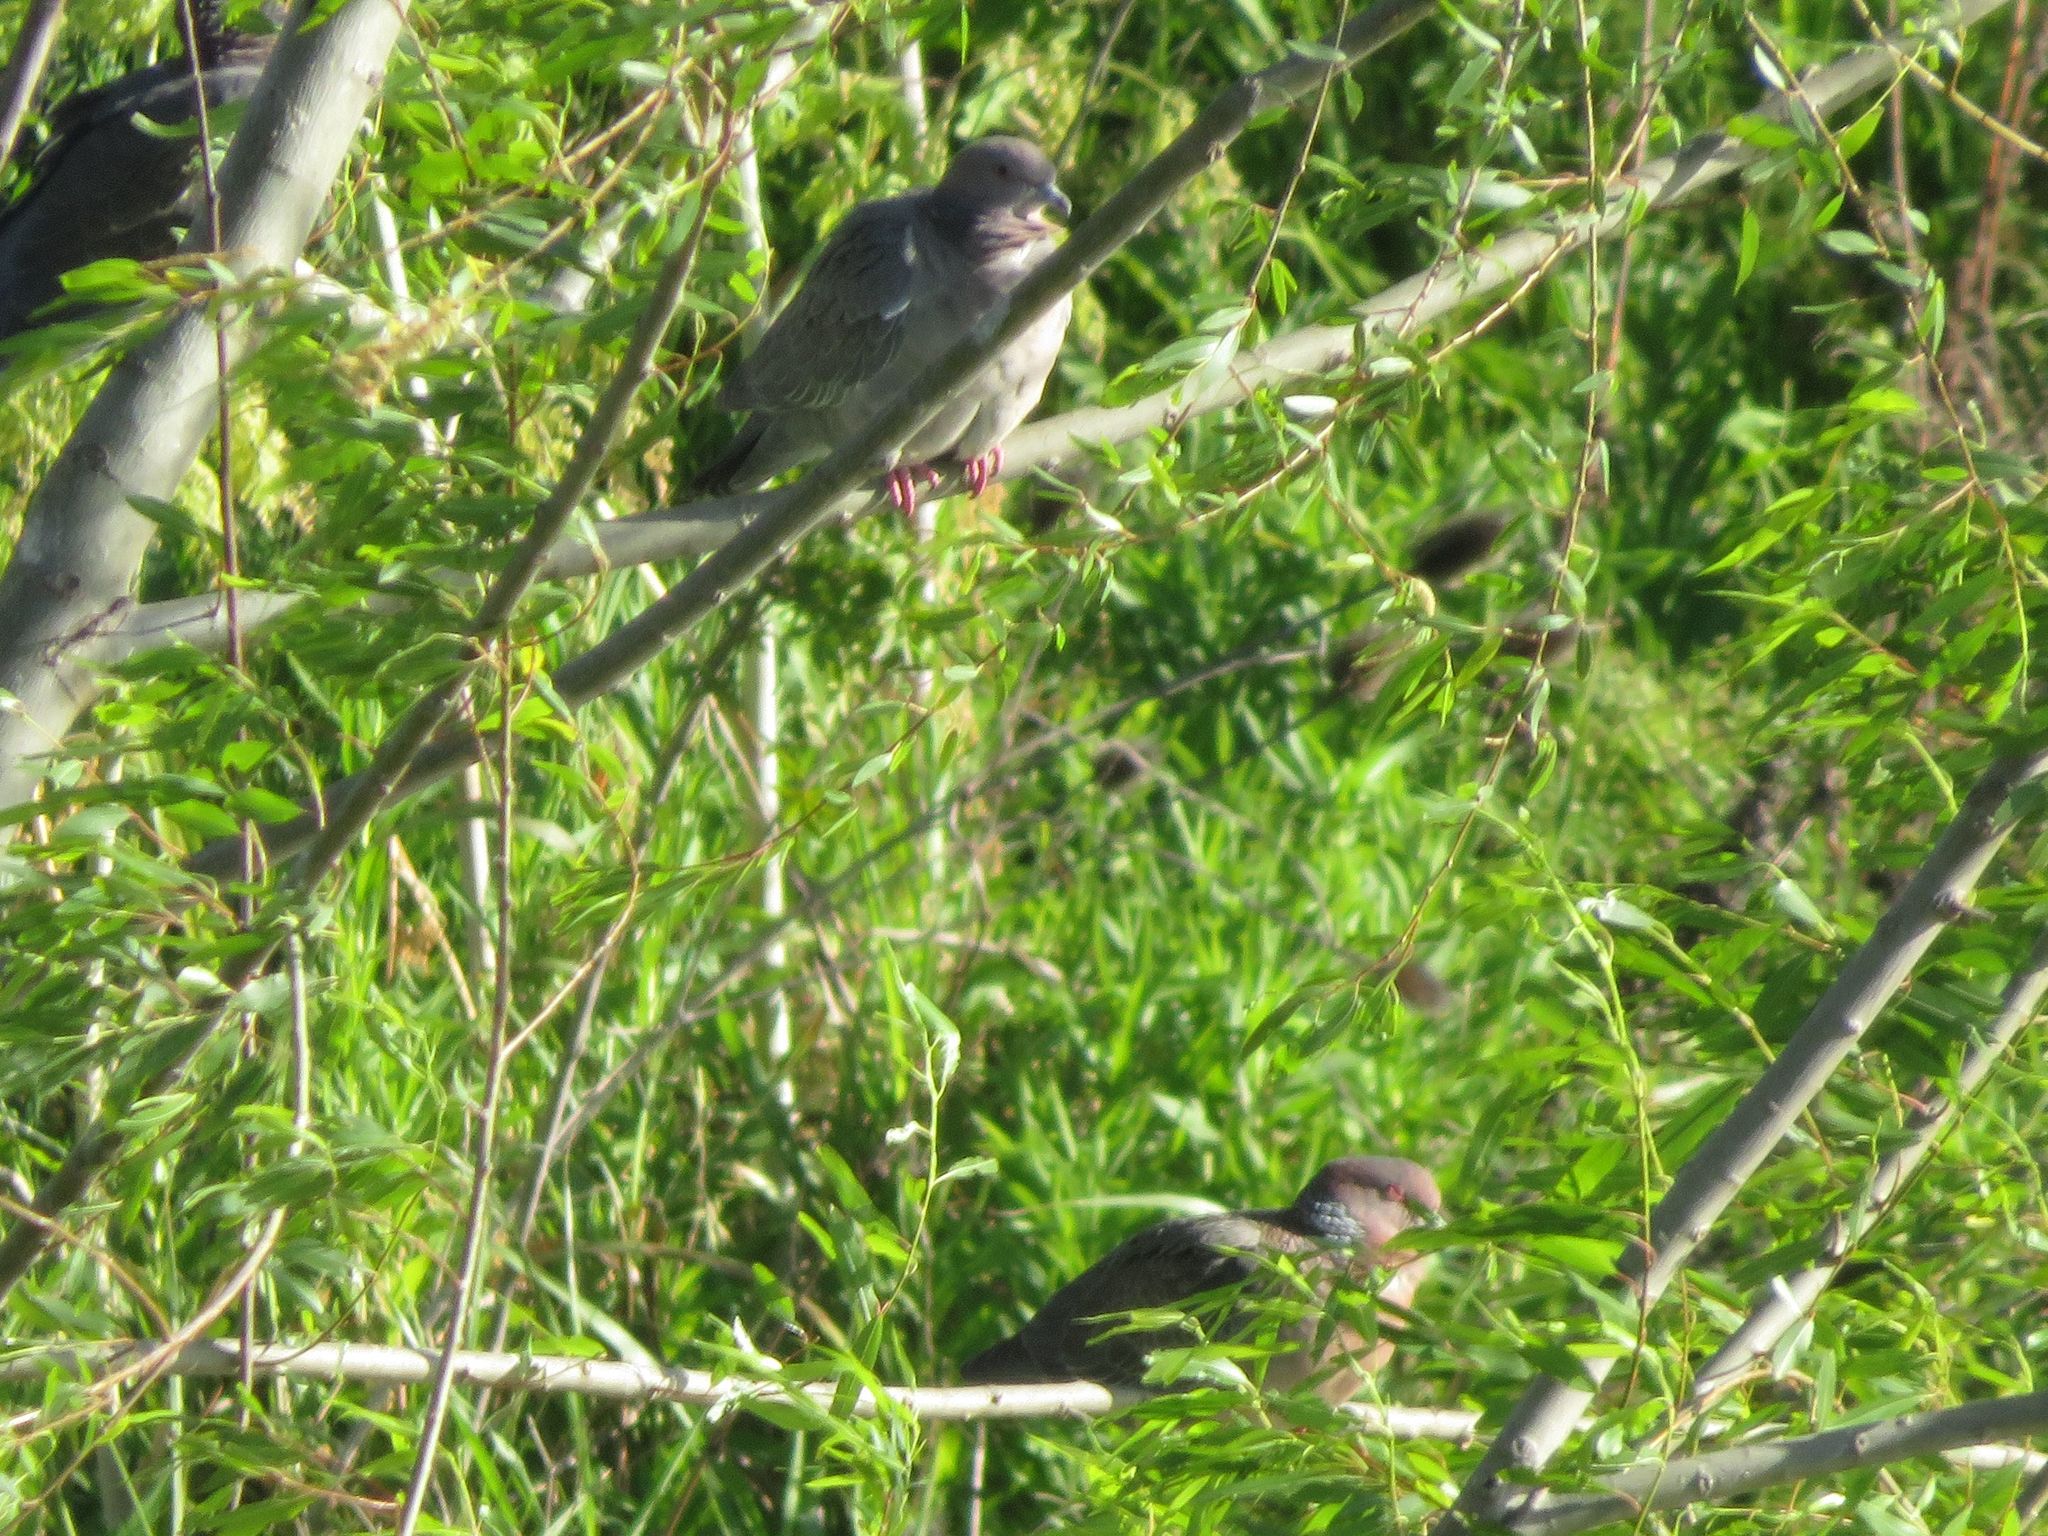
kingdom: Animalia
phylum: Chordata
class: Aves
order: Columbiformes
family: Columbidae
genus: Patagioenas
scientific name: Patagioenas picazuro
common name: Picazuro pigeon
